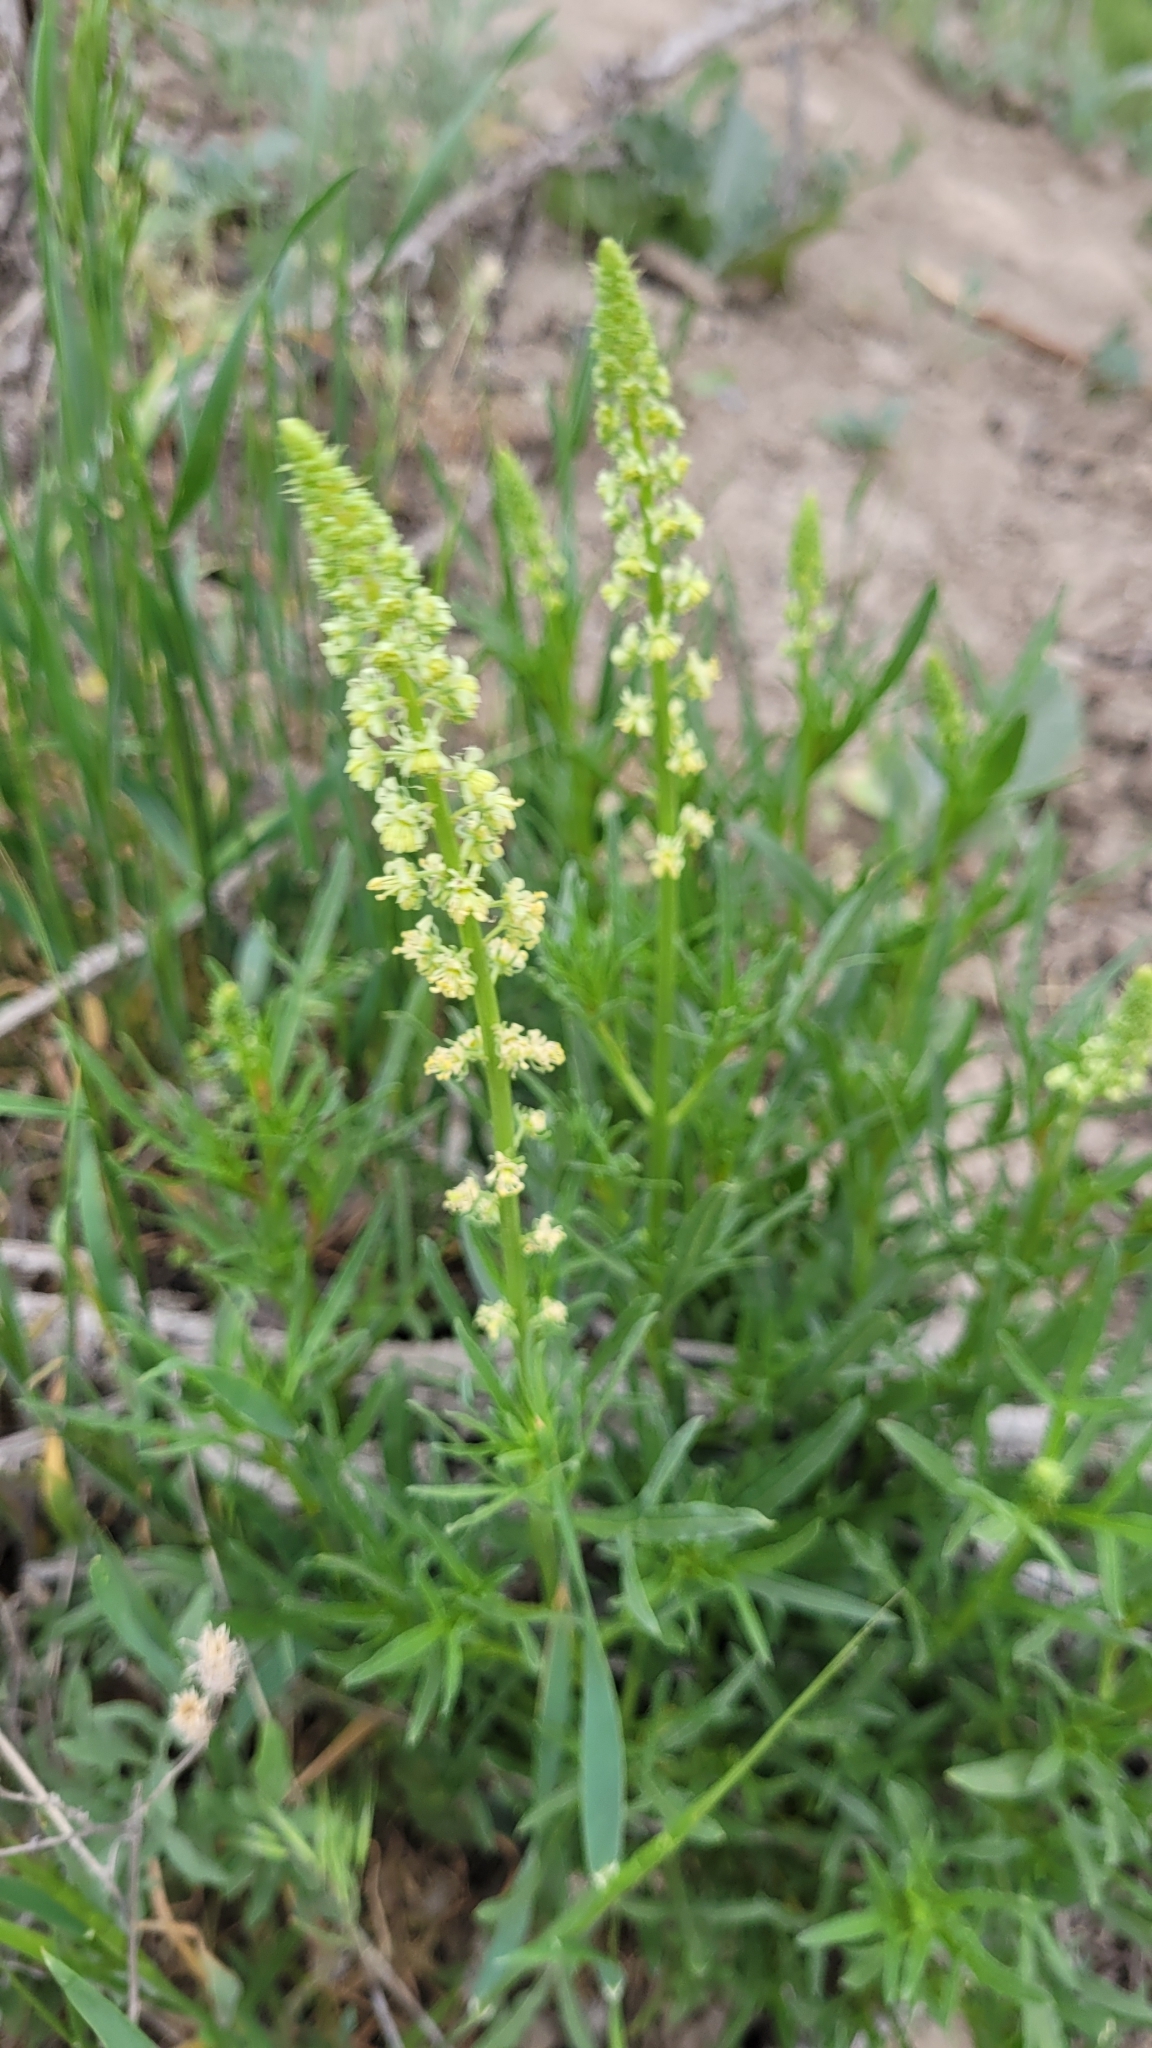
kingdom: Plantae
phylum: Tracheophyta
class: Magnoliopsida
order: Brassicales
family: Resedaceae
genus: Reseda
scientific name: Reseda lutea
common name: Wild mignonette
